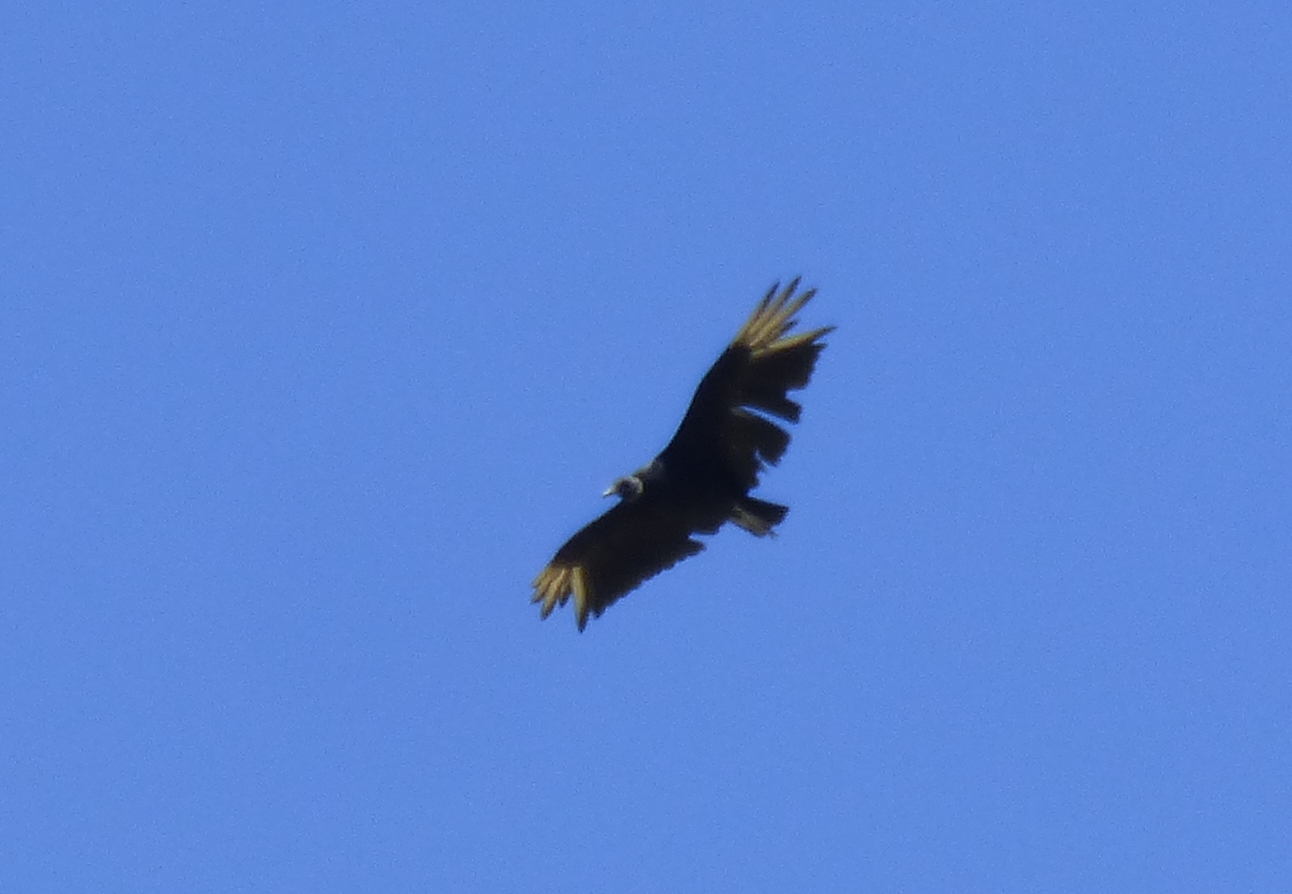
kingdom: Animalia
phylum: Chordata
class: Aves
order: Accipitriformes
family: Cathartidae
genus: Coragyps
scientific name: Coragyps atratus
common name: Black vulture
